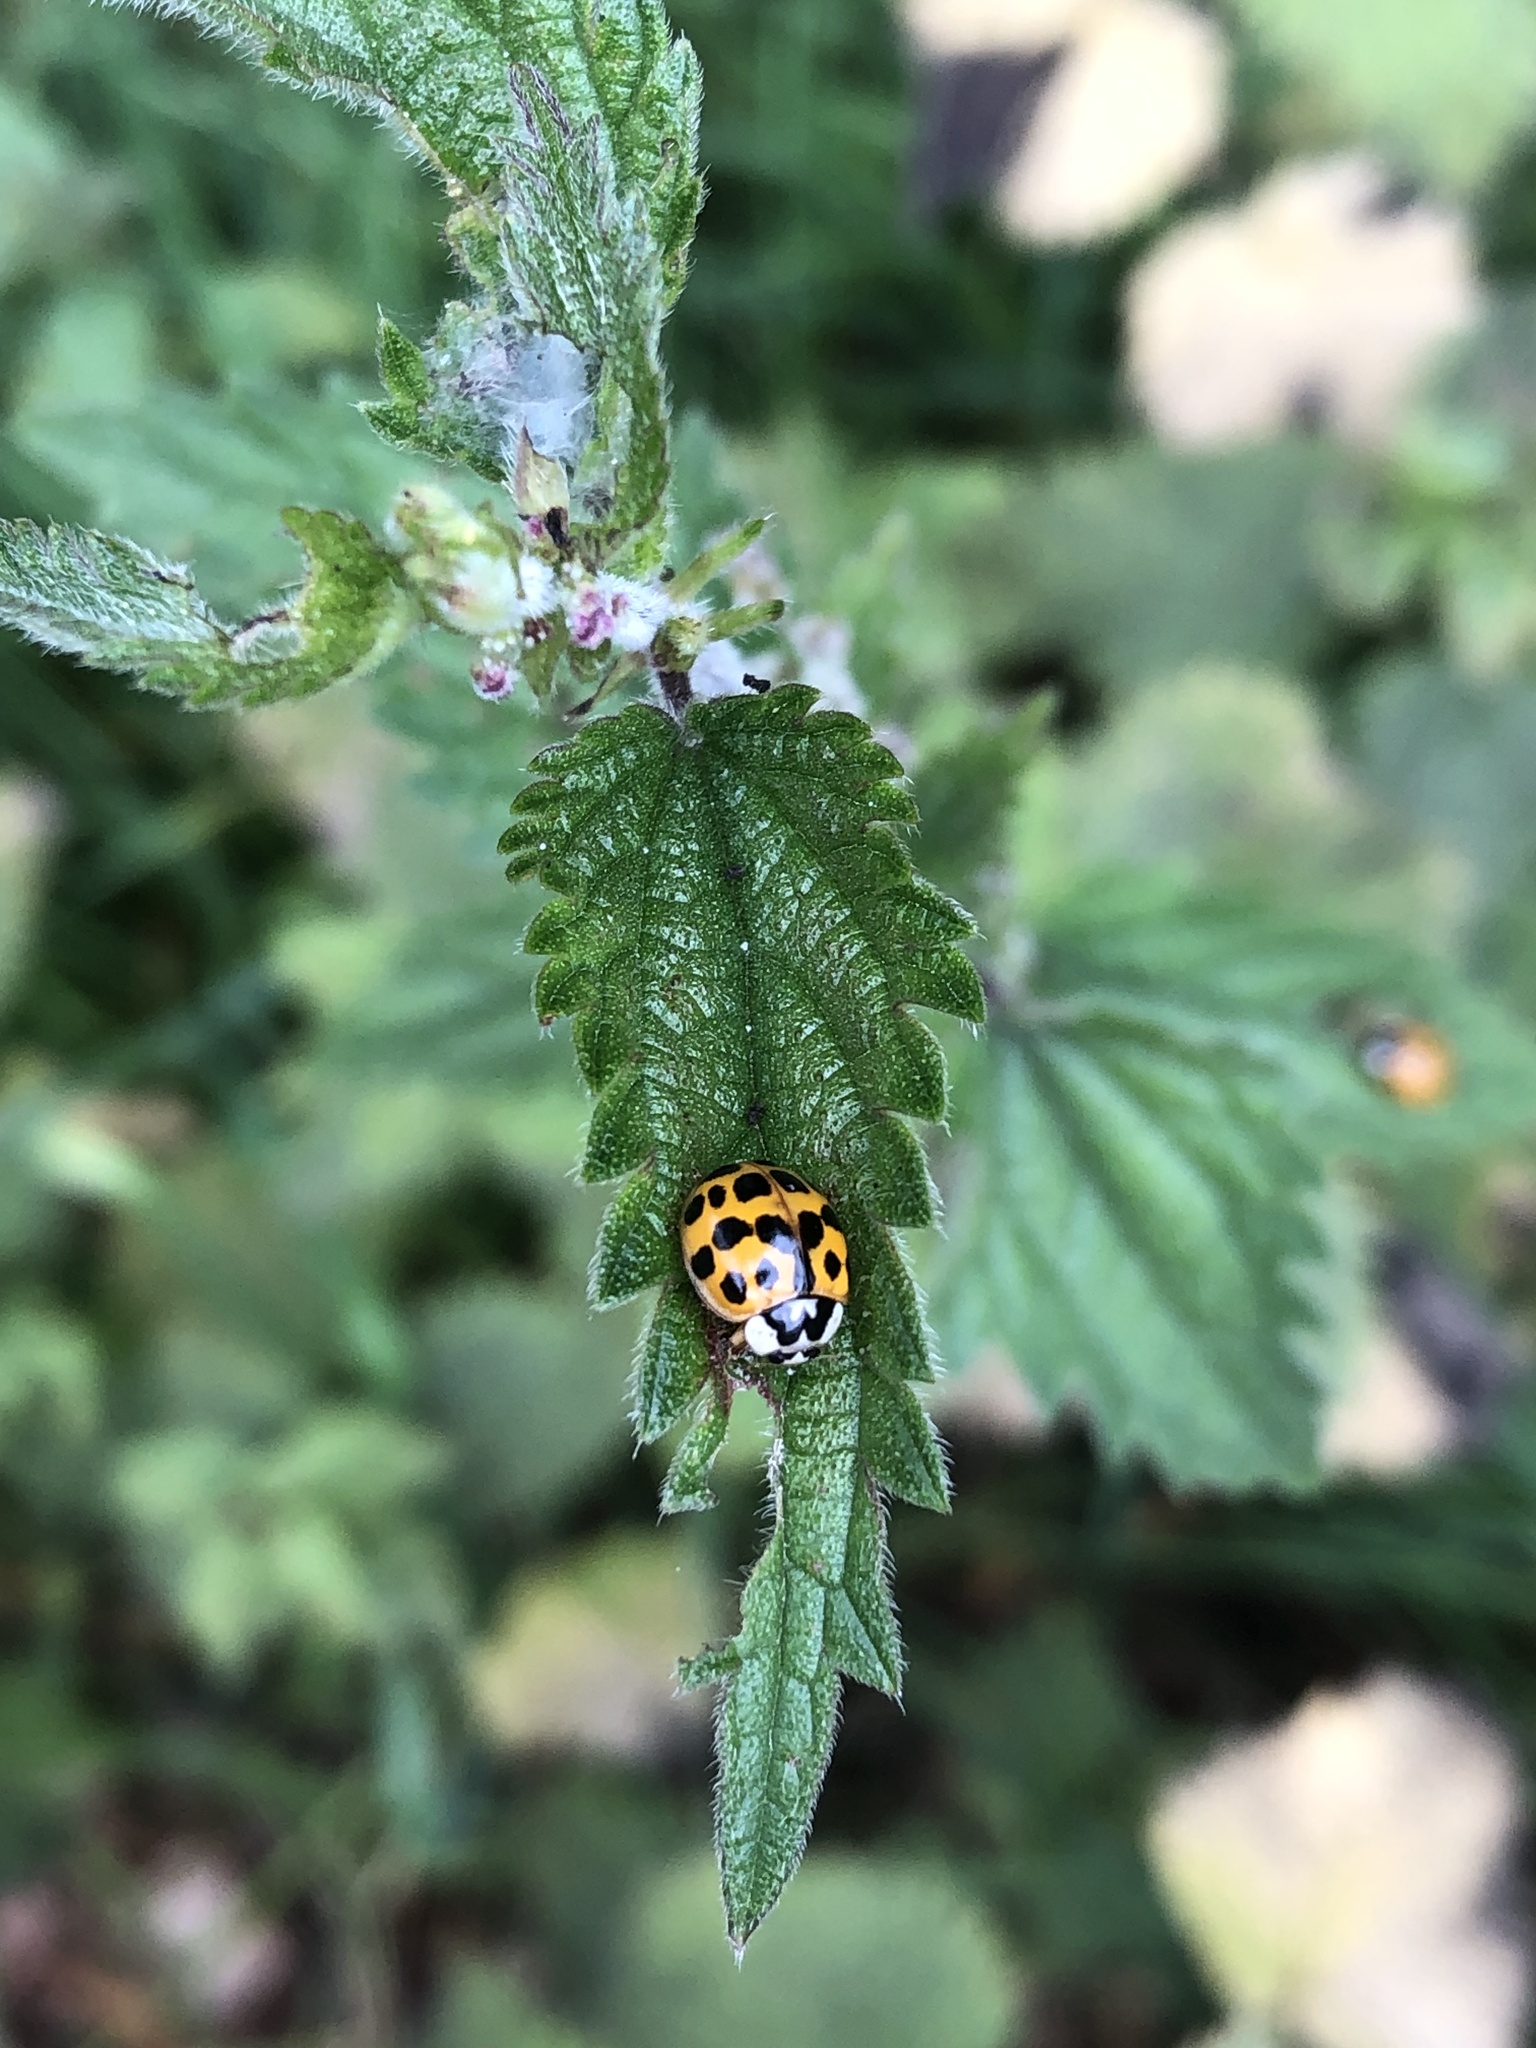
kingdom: Animalia
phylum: Arthropoda
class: Insecta
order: Coleoptera
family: Coccinellidae
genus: Harmonia
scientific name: Harmonia axyridis
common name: Harlequin ladybird
